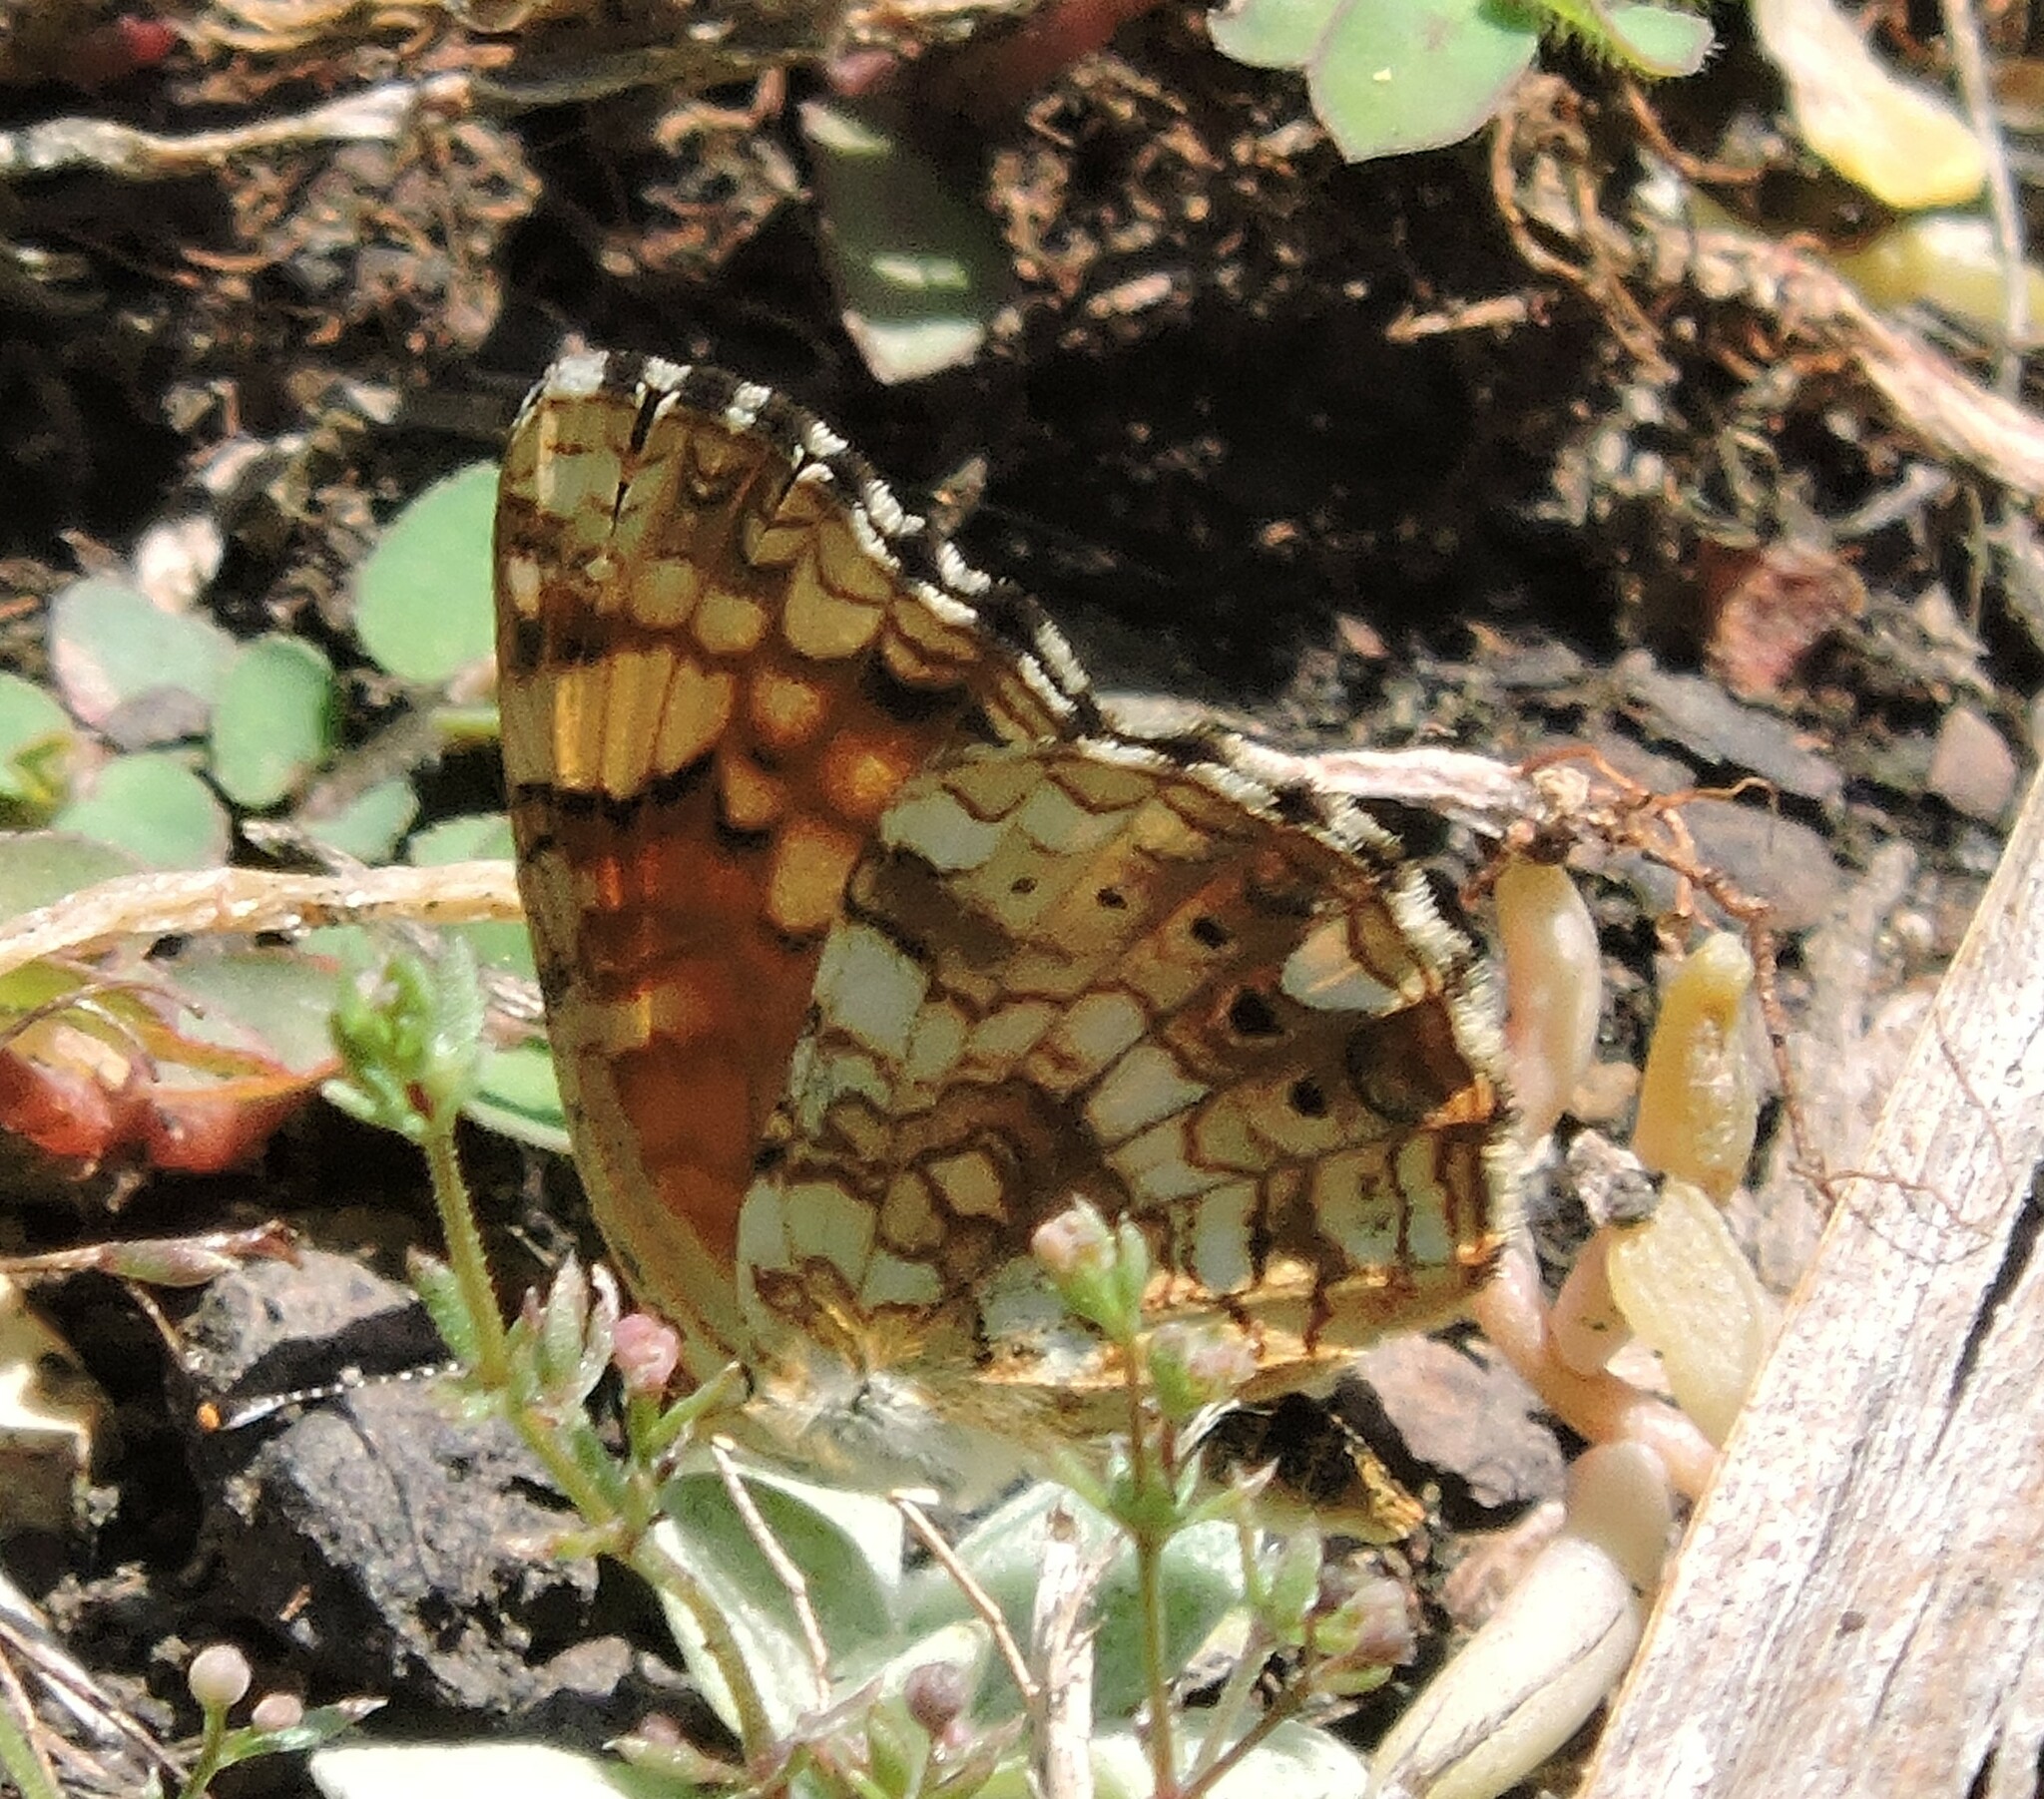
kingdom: Animalia
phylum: Arthropoda
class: Insecta
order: Lepidoptera
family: Nymphalidae
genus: Eresia
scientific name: Eresia aveyrona
